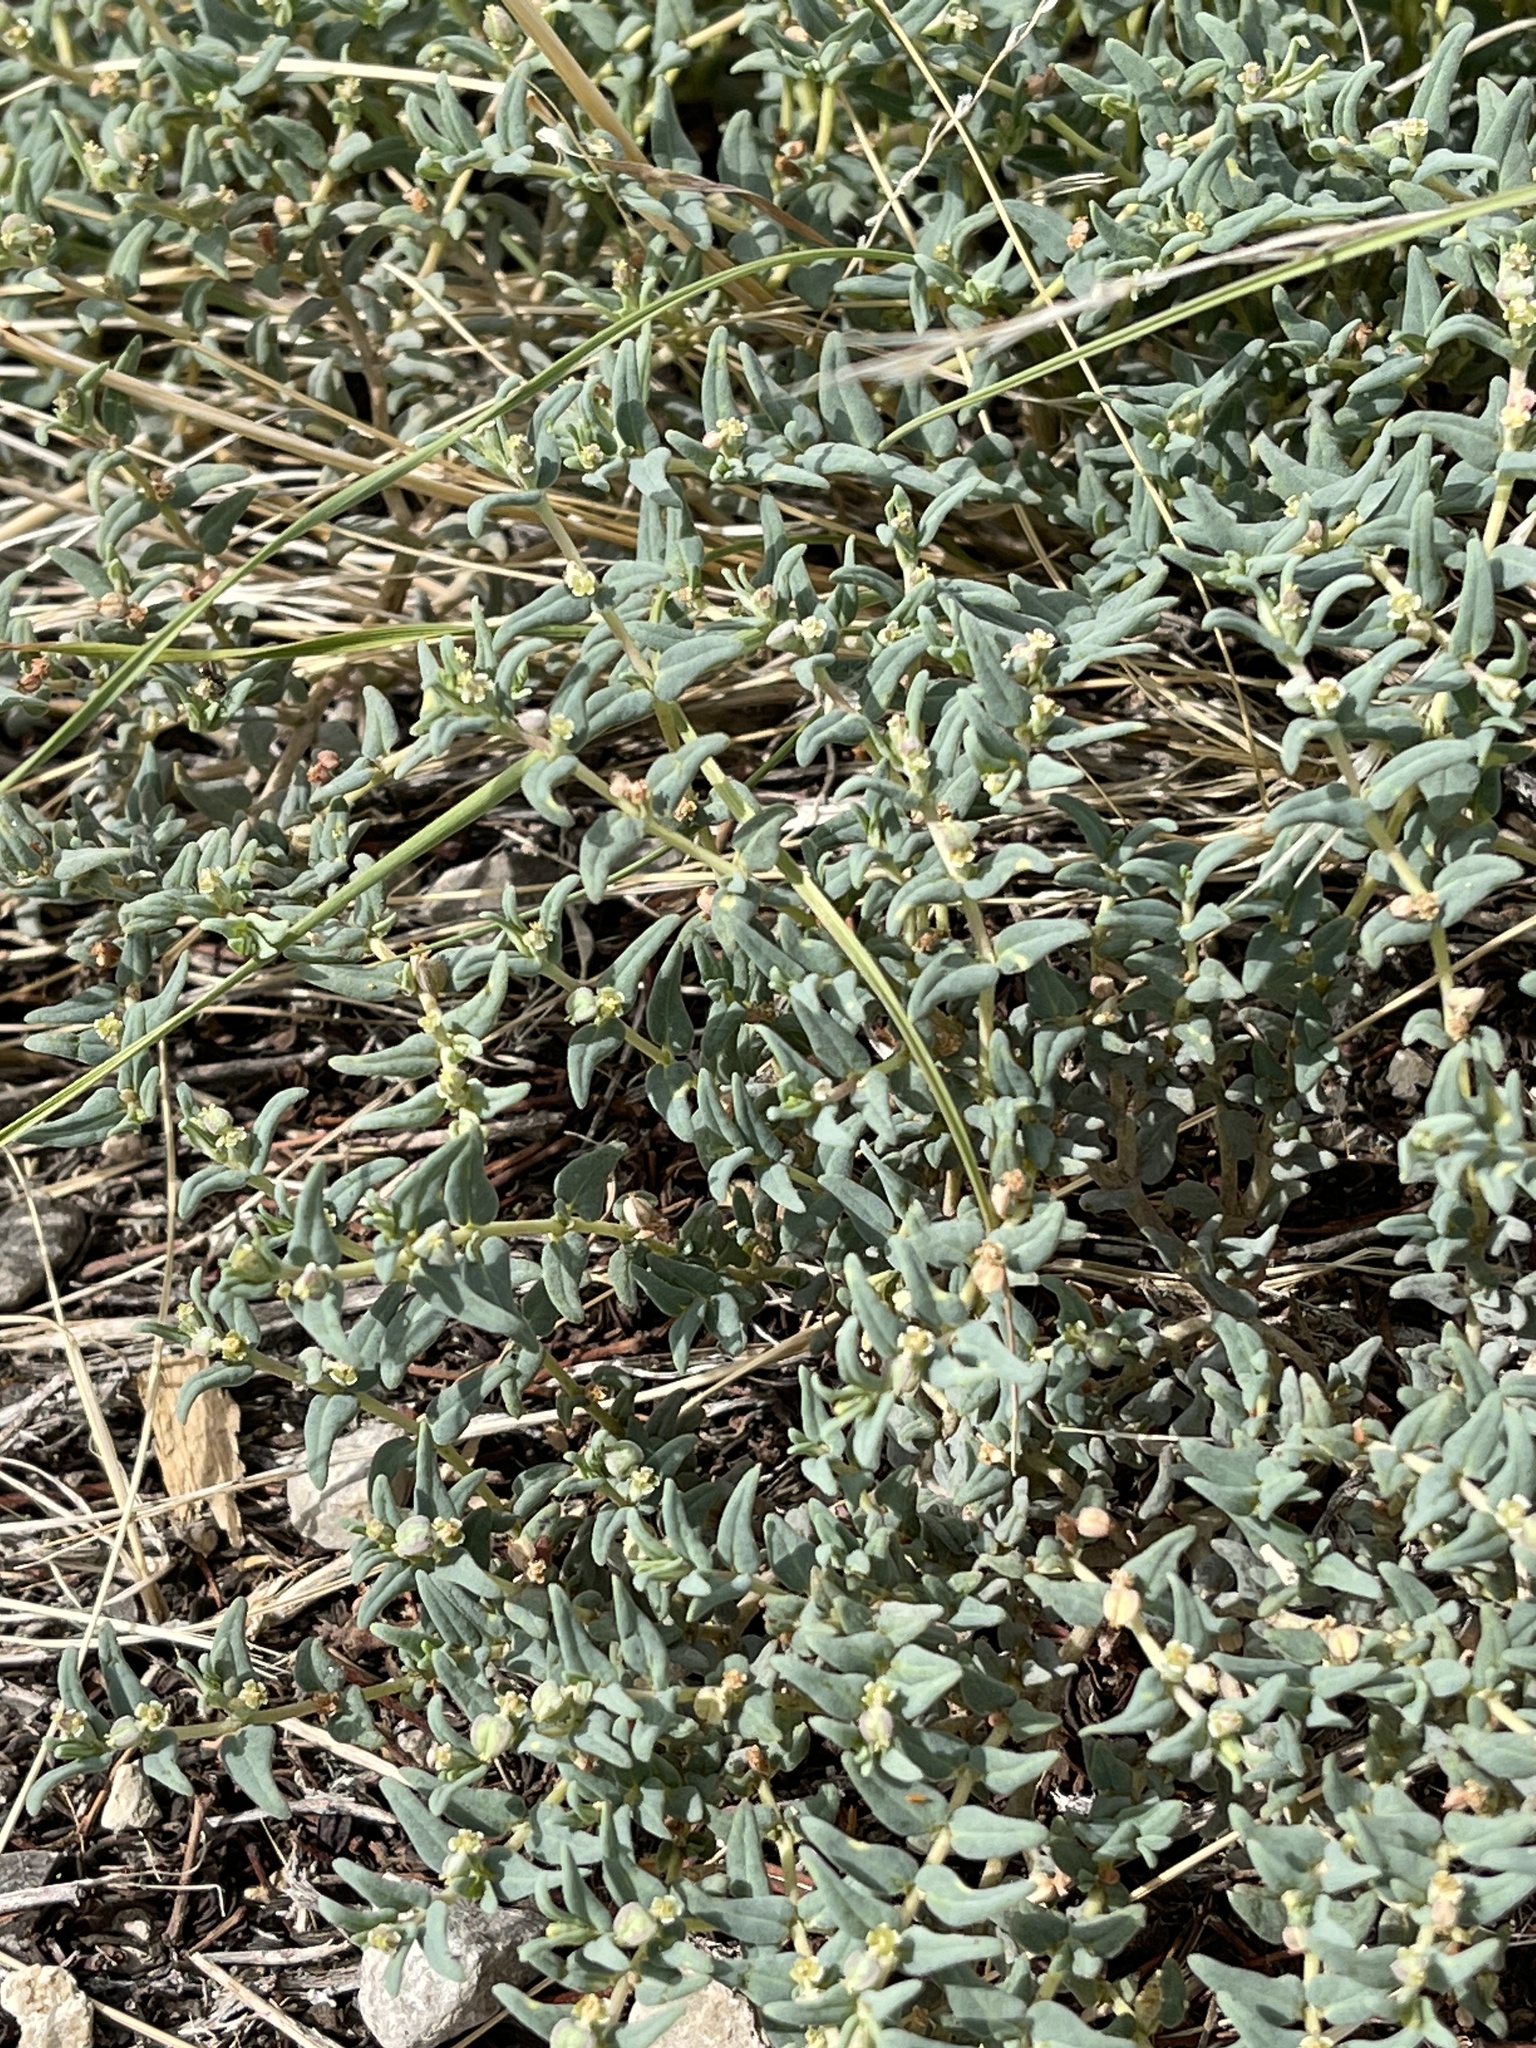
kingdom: Plantae
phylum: Tracheophyta
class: Magnoliopsida
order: Malpighiales
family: Euphorbiaceae
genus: Euphorbia
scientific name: Euphorbia lata
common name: Hoary euphorbia
